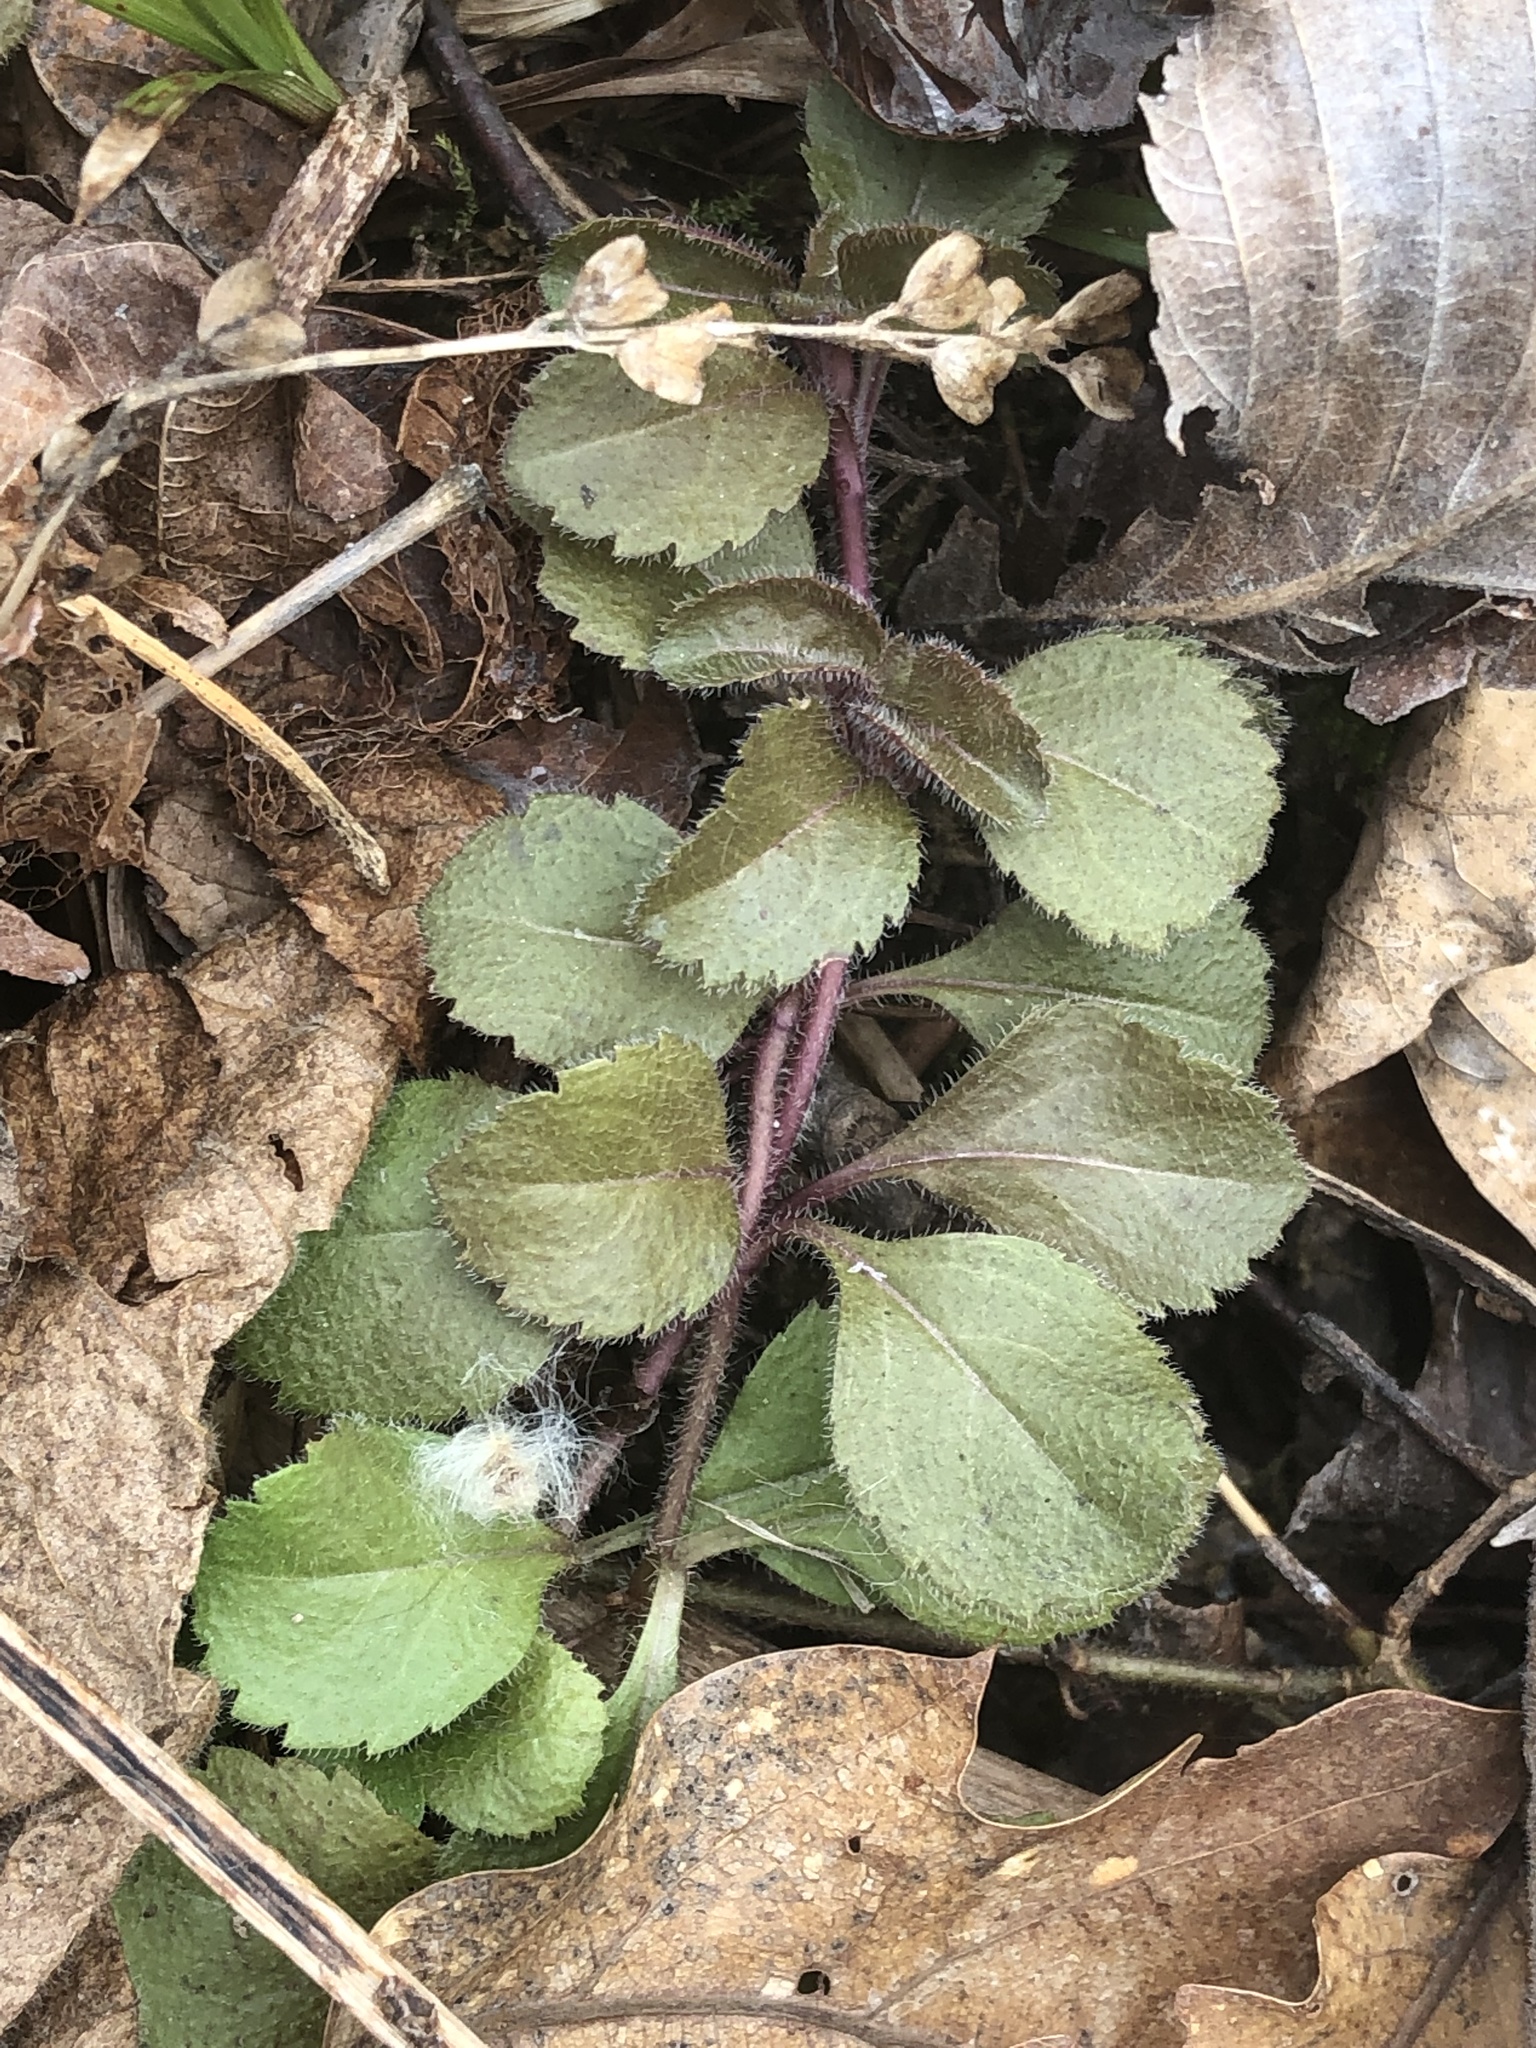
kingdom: Plantae
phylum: Tracheophyta
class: Magnoliopsida
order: Lamiales
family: Plantaginaceae
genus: Veronica
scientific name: Veronica officinalis
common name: Common speedwell
